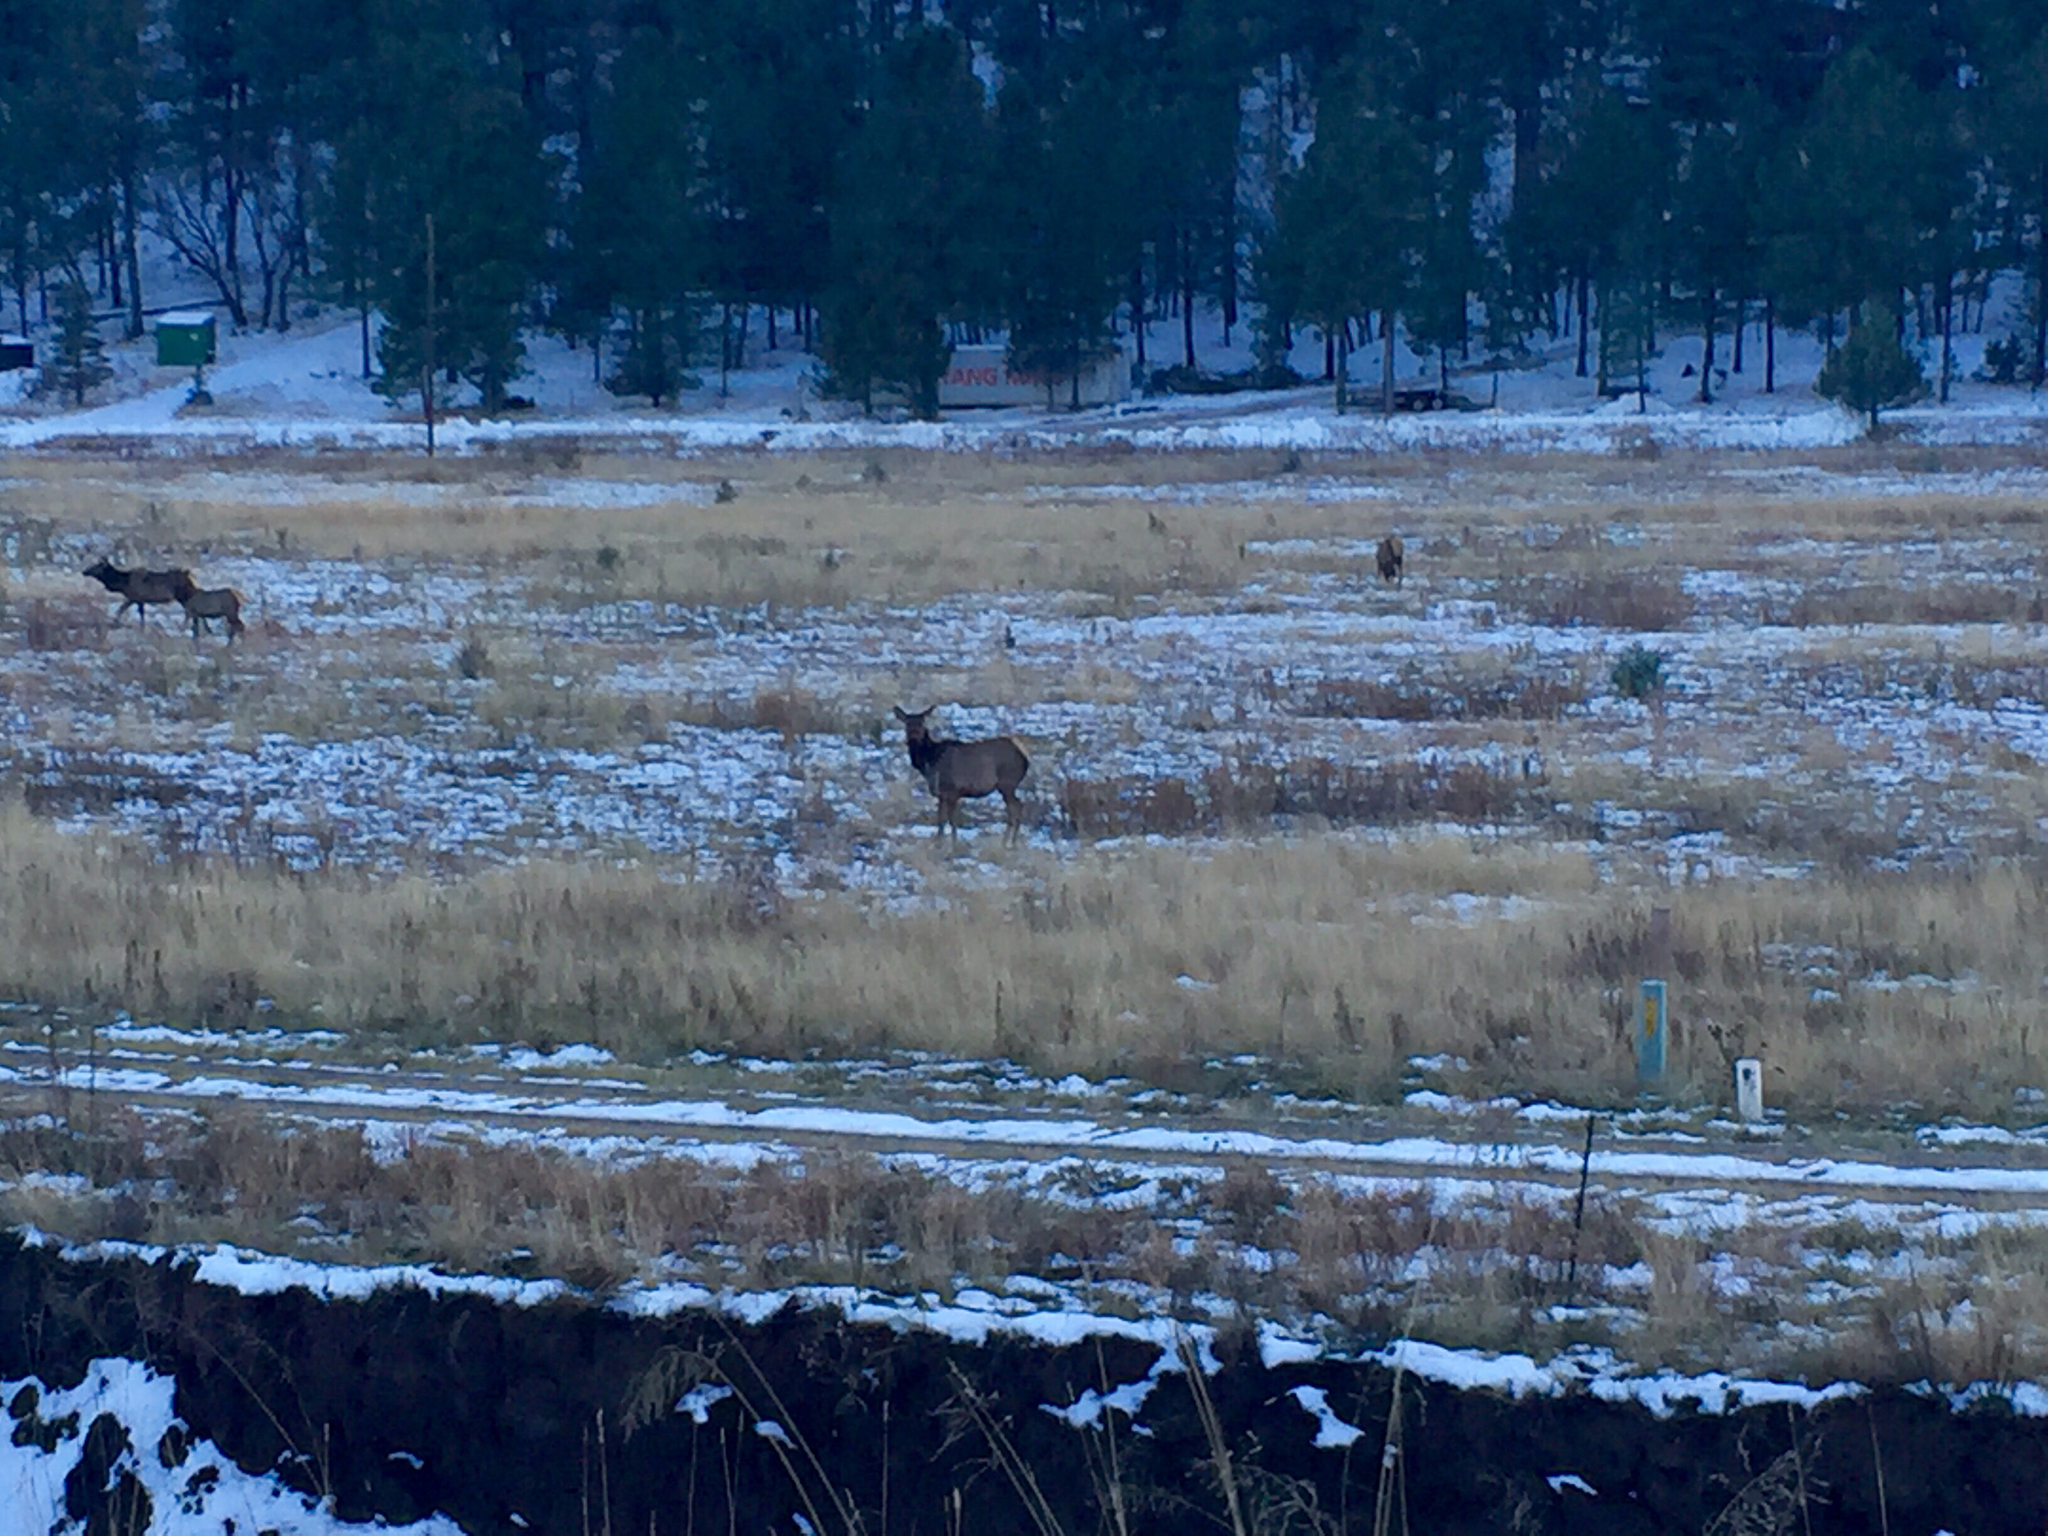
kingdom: Animalia
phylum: Chordata
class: Mammalia
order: Artiodactyla
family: Cervidae
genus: Cervus
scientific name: Cervus elaphus
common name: Red deer
